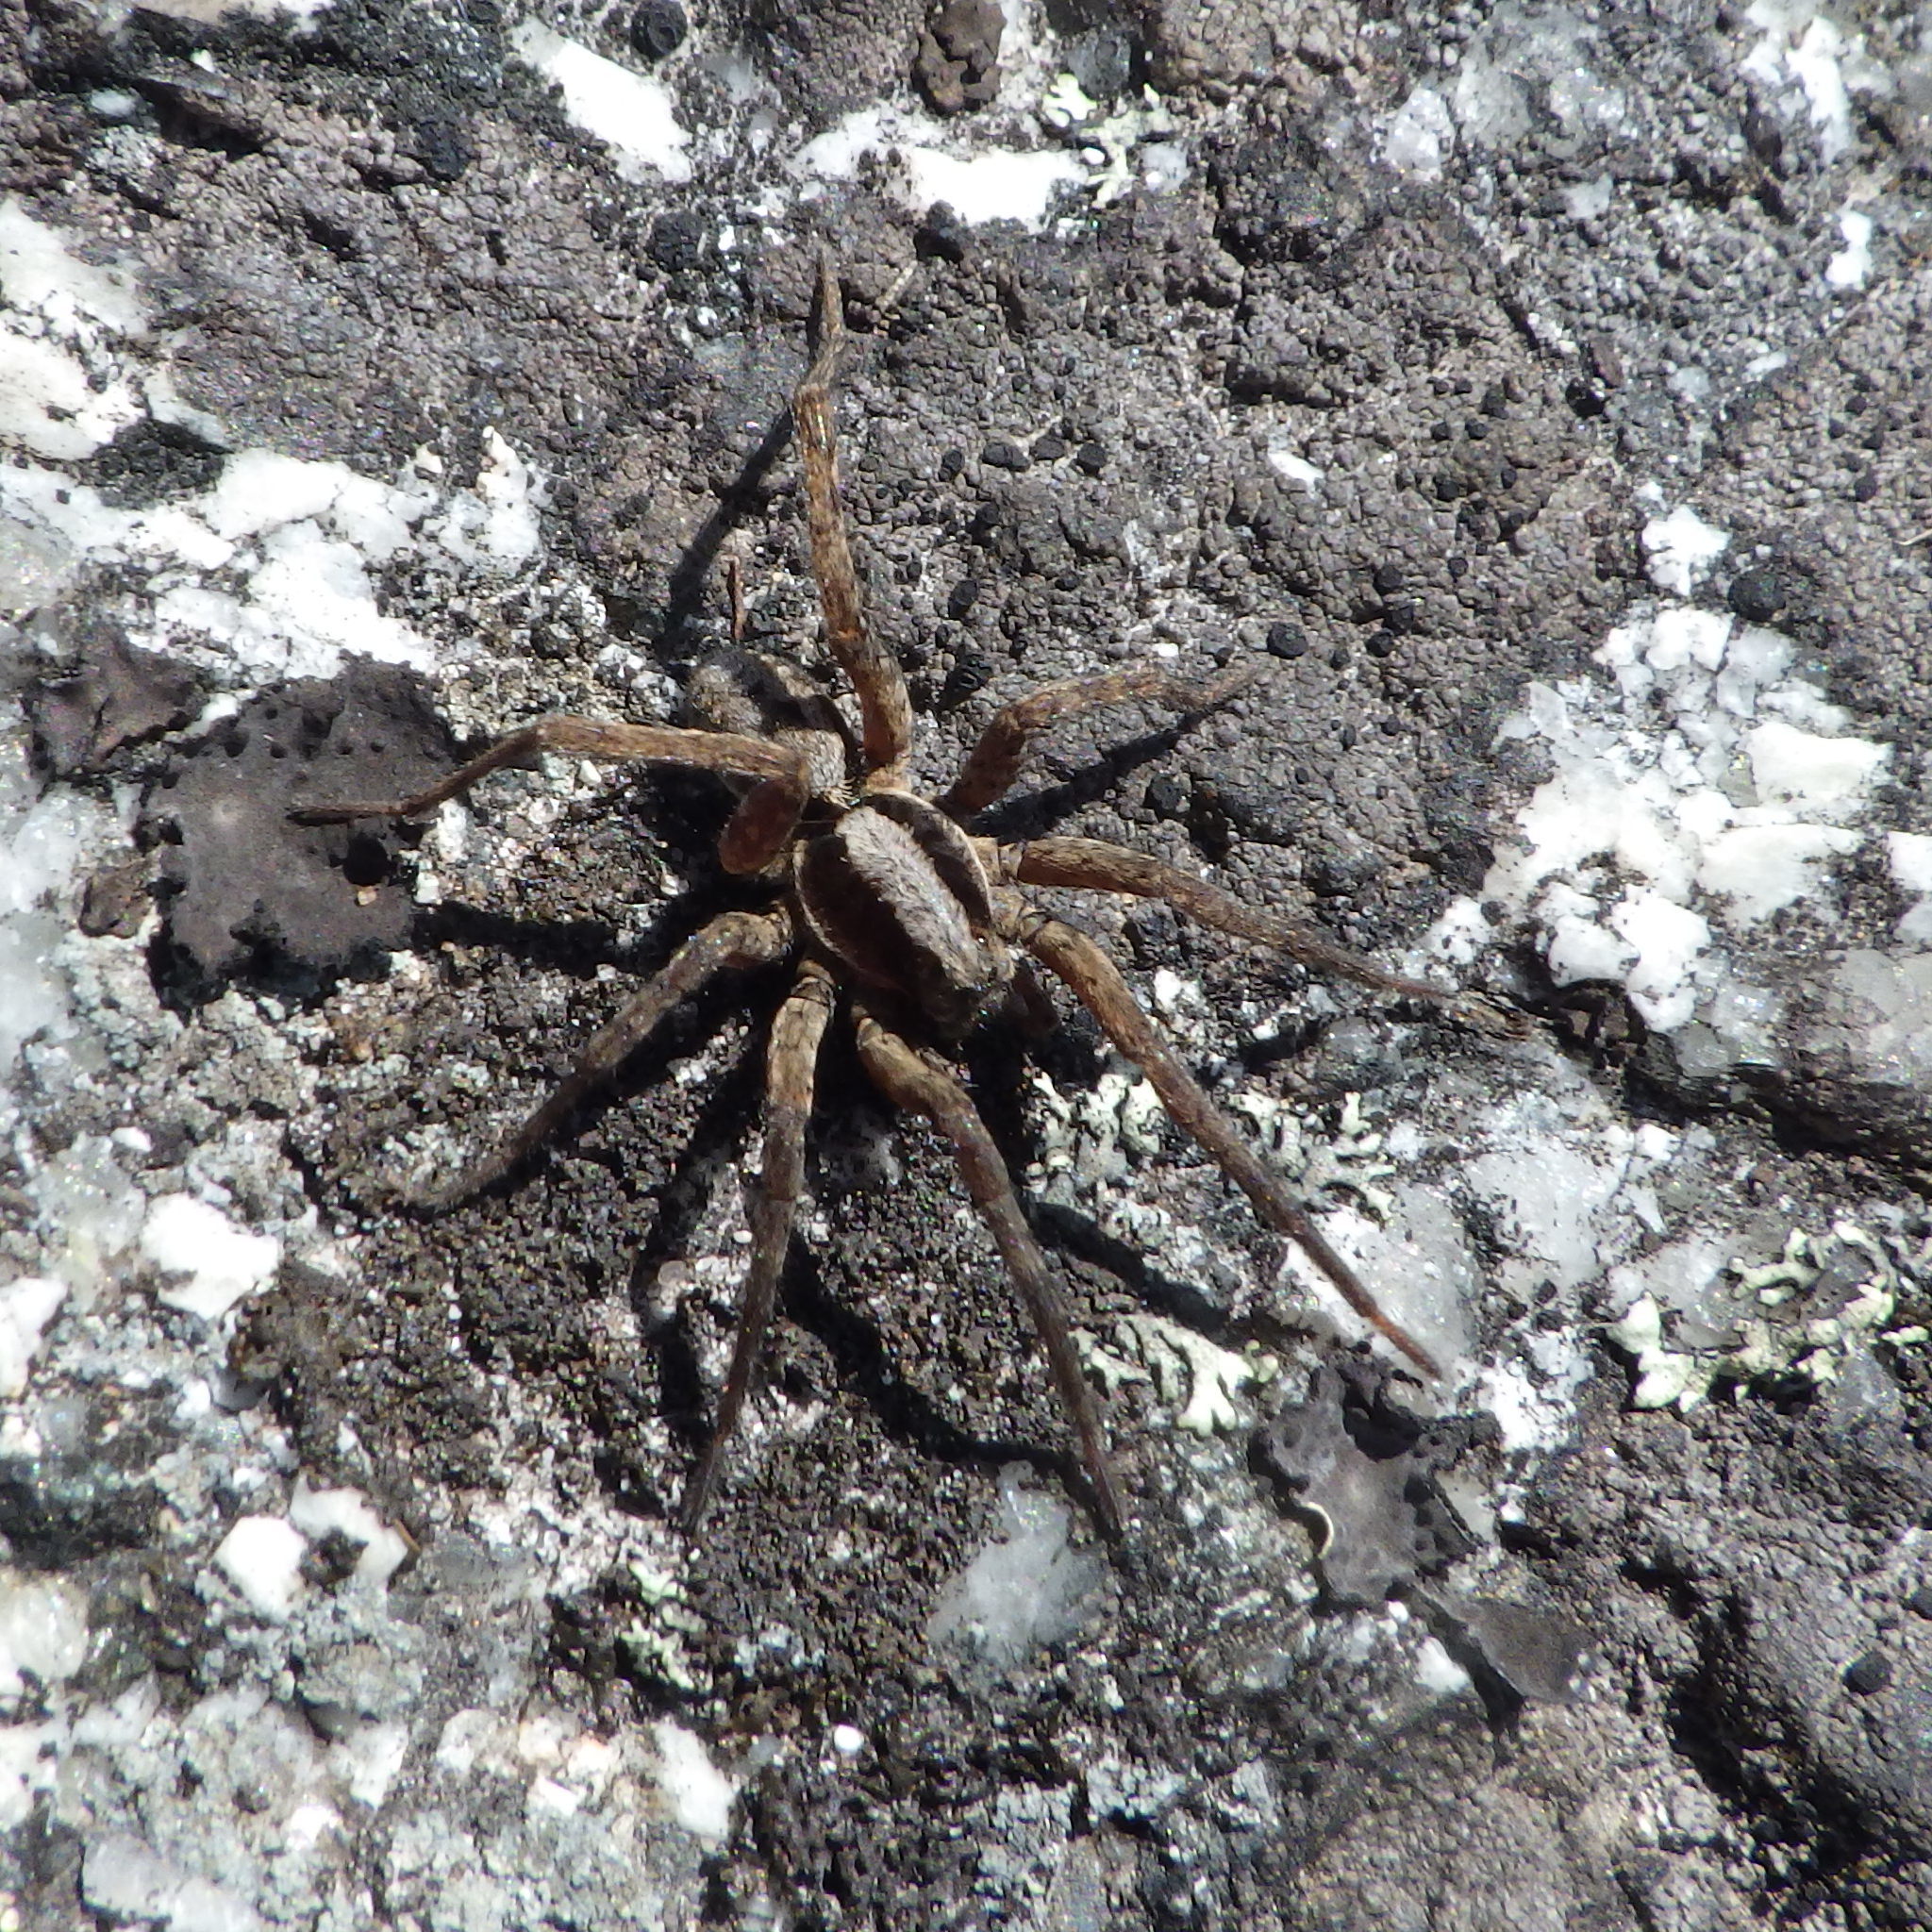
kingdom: Animalia
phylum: Arthropoda
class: Arachnida
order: Araneae
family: Lycosidae
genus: Hogna
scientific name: Hogna frondicola
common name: Forest wolf spider
